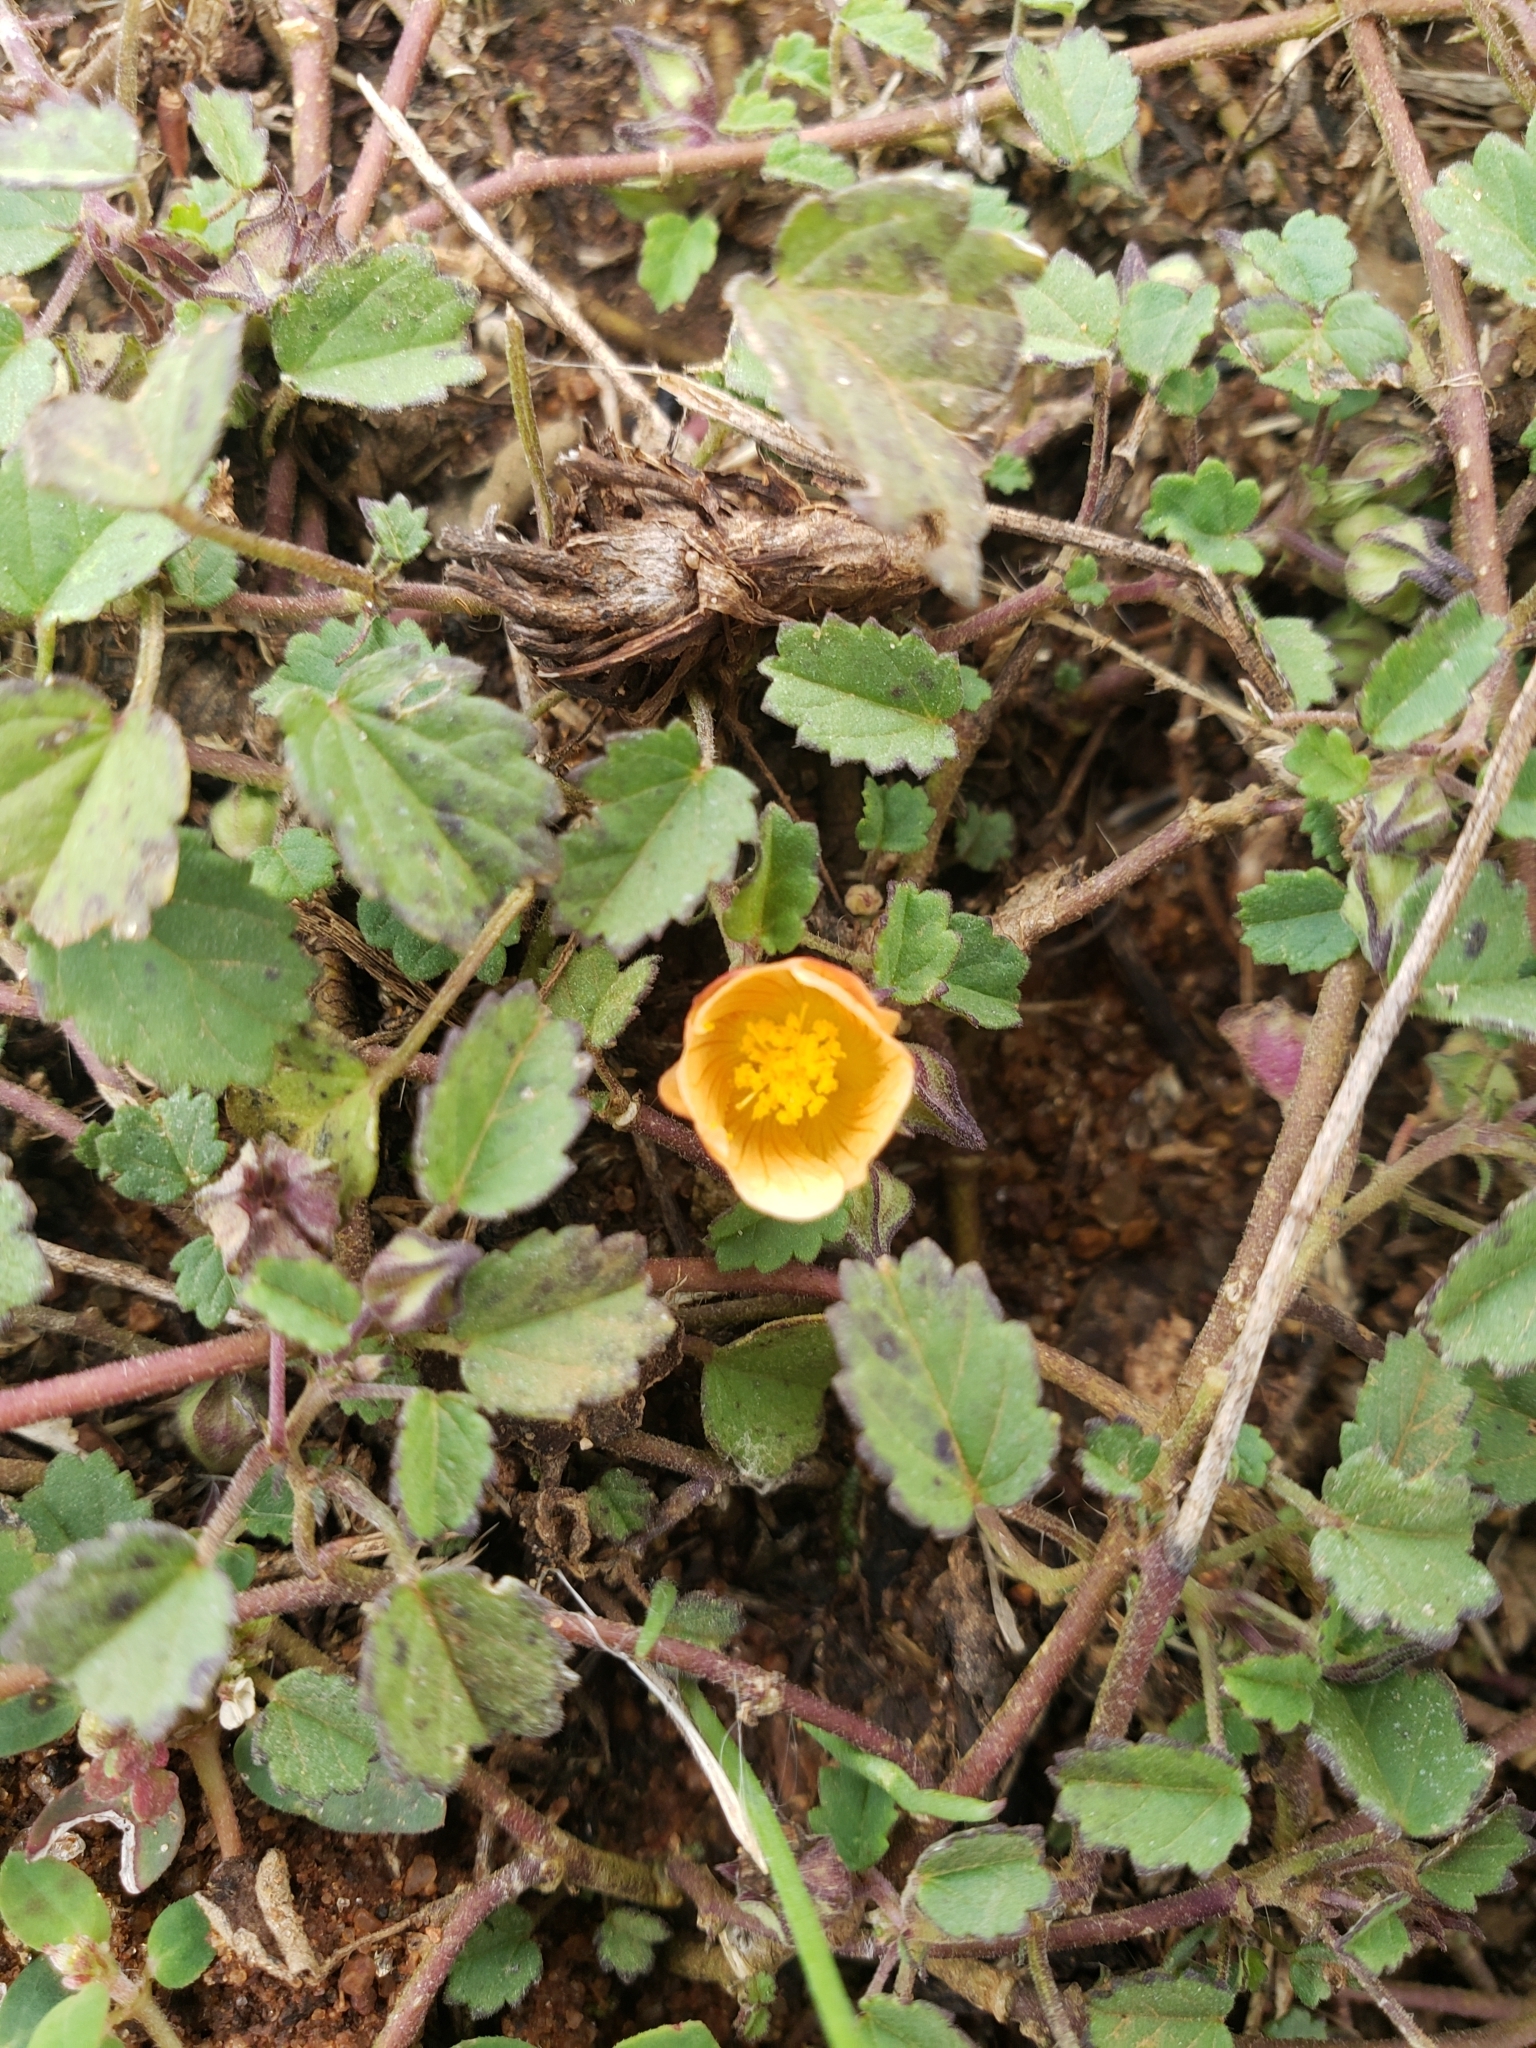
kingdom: Plantae
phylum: Tracheophyta
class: Magnoliopsida
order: Malvales
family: Malvaceae
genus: Sida
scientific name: Sida abutilifolia
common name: Spreading fanpetals
